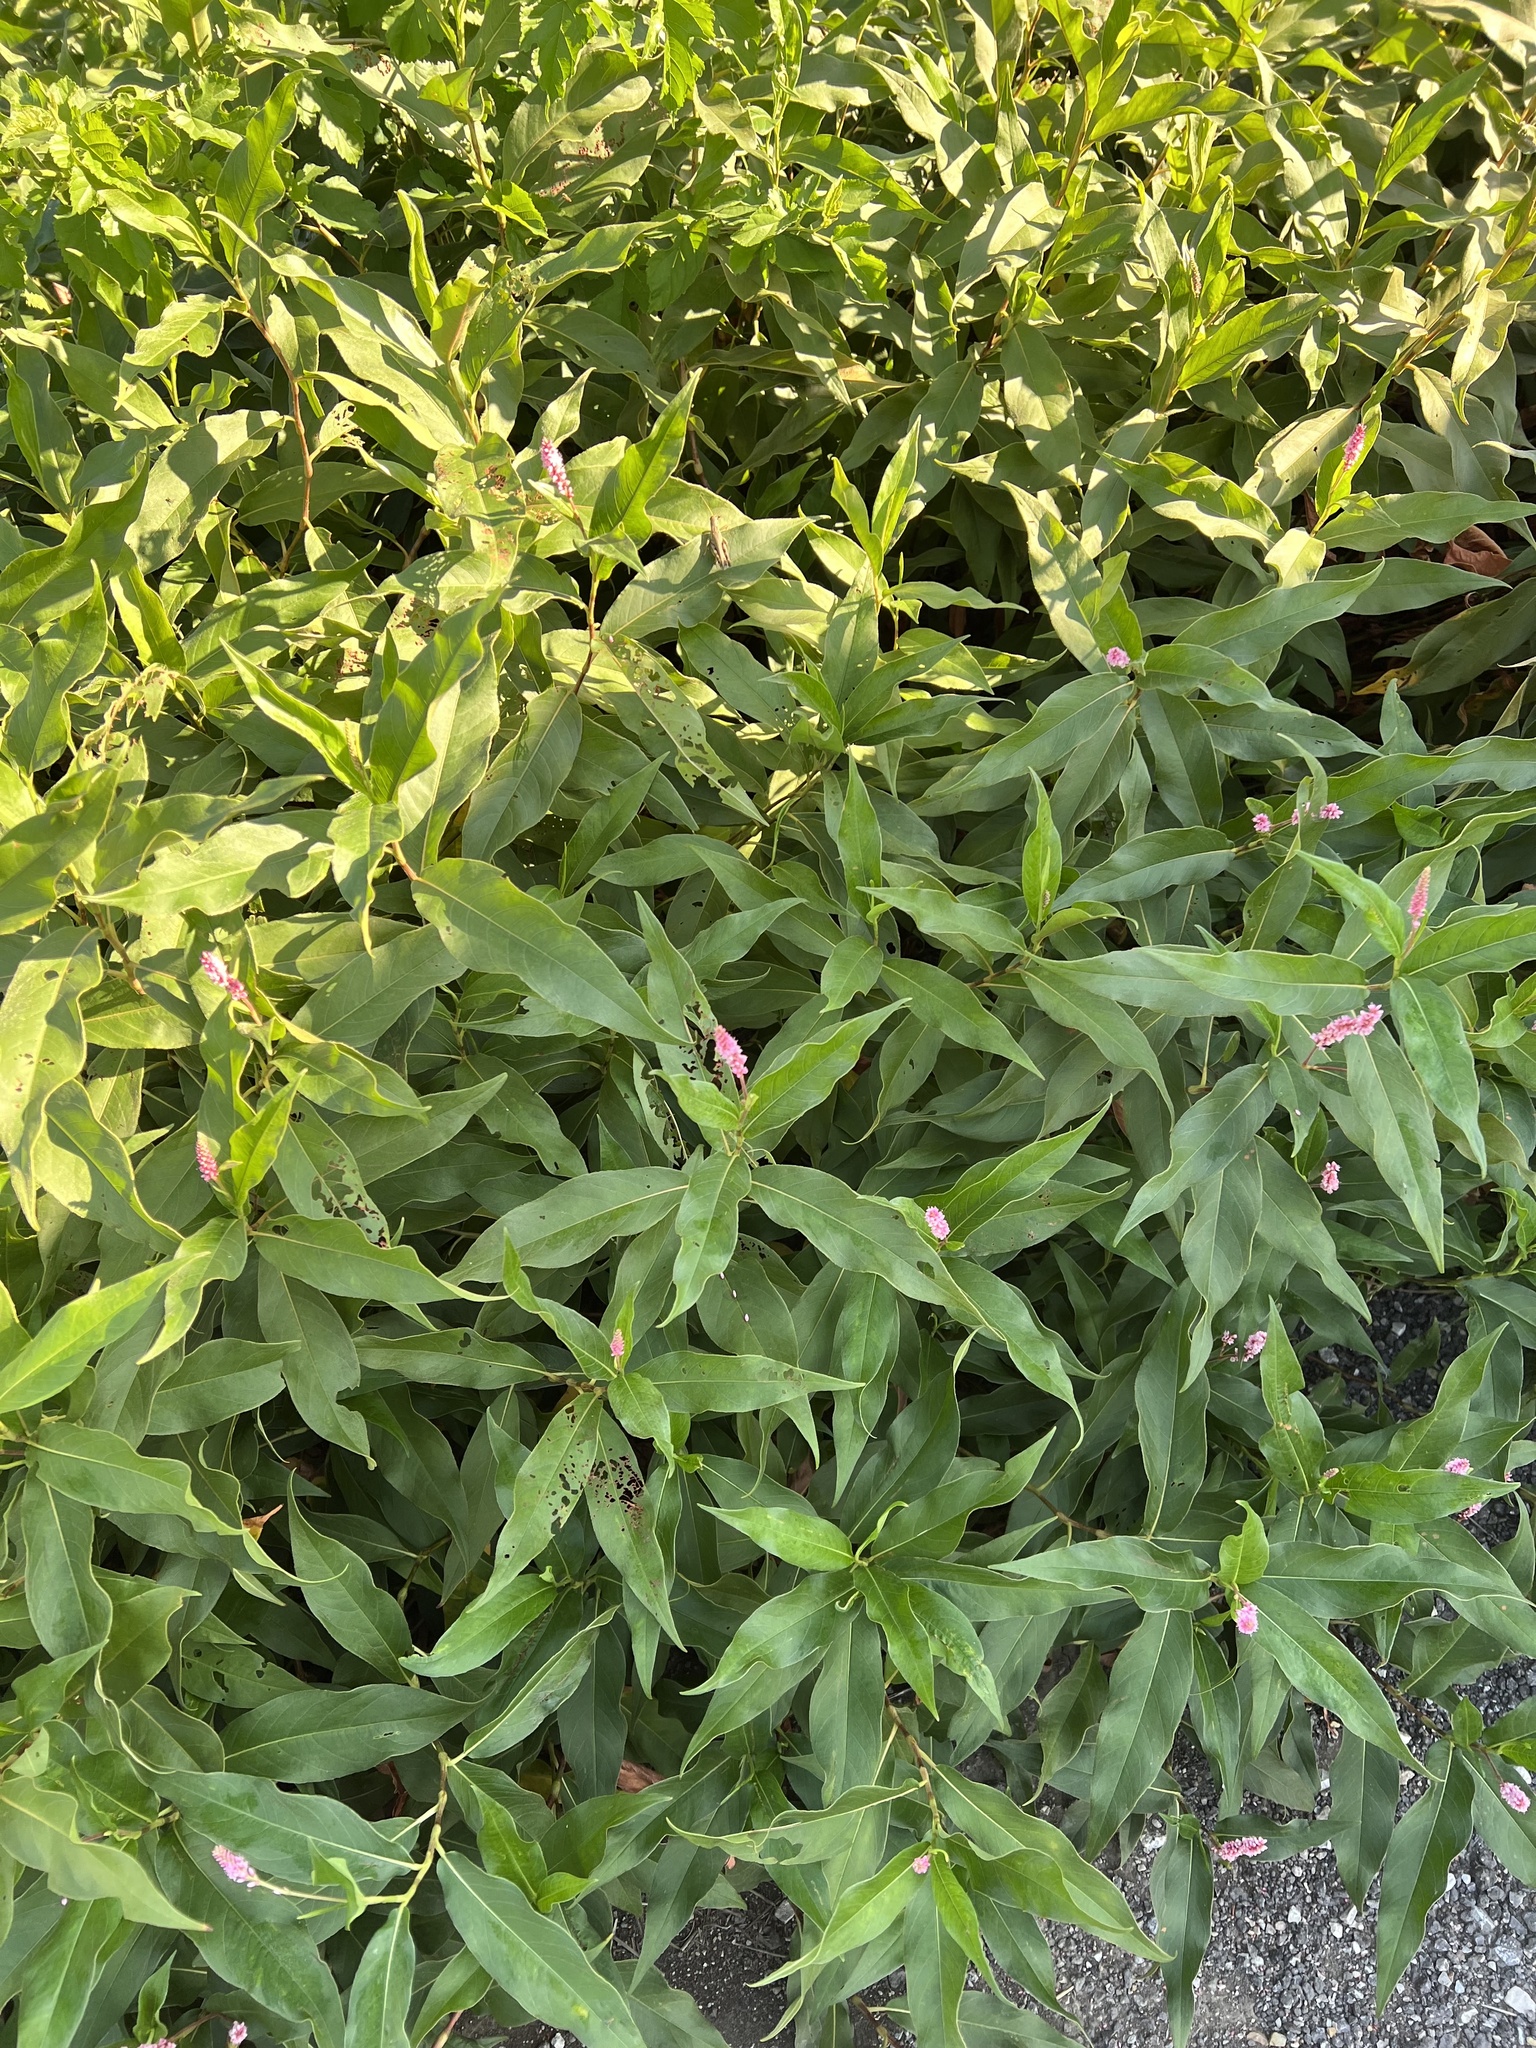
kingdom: Plantae
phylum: Tracheophyta
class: Magnoliopsida
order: Caryophyllales
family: Polygonaceae
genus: Persicaria
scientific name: Persicaria amphibia
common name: Amphibious bistort
